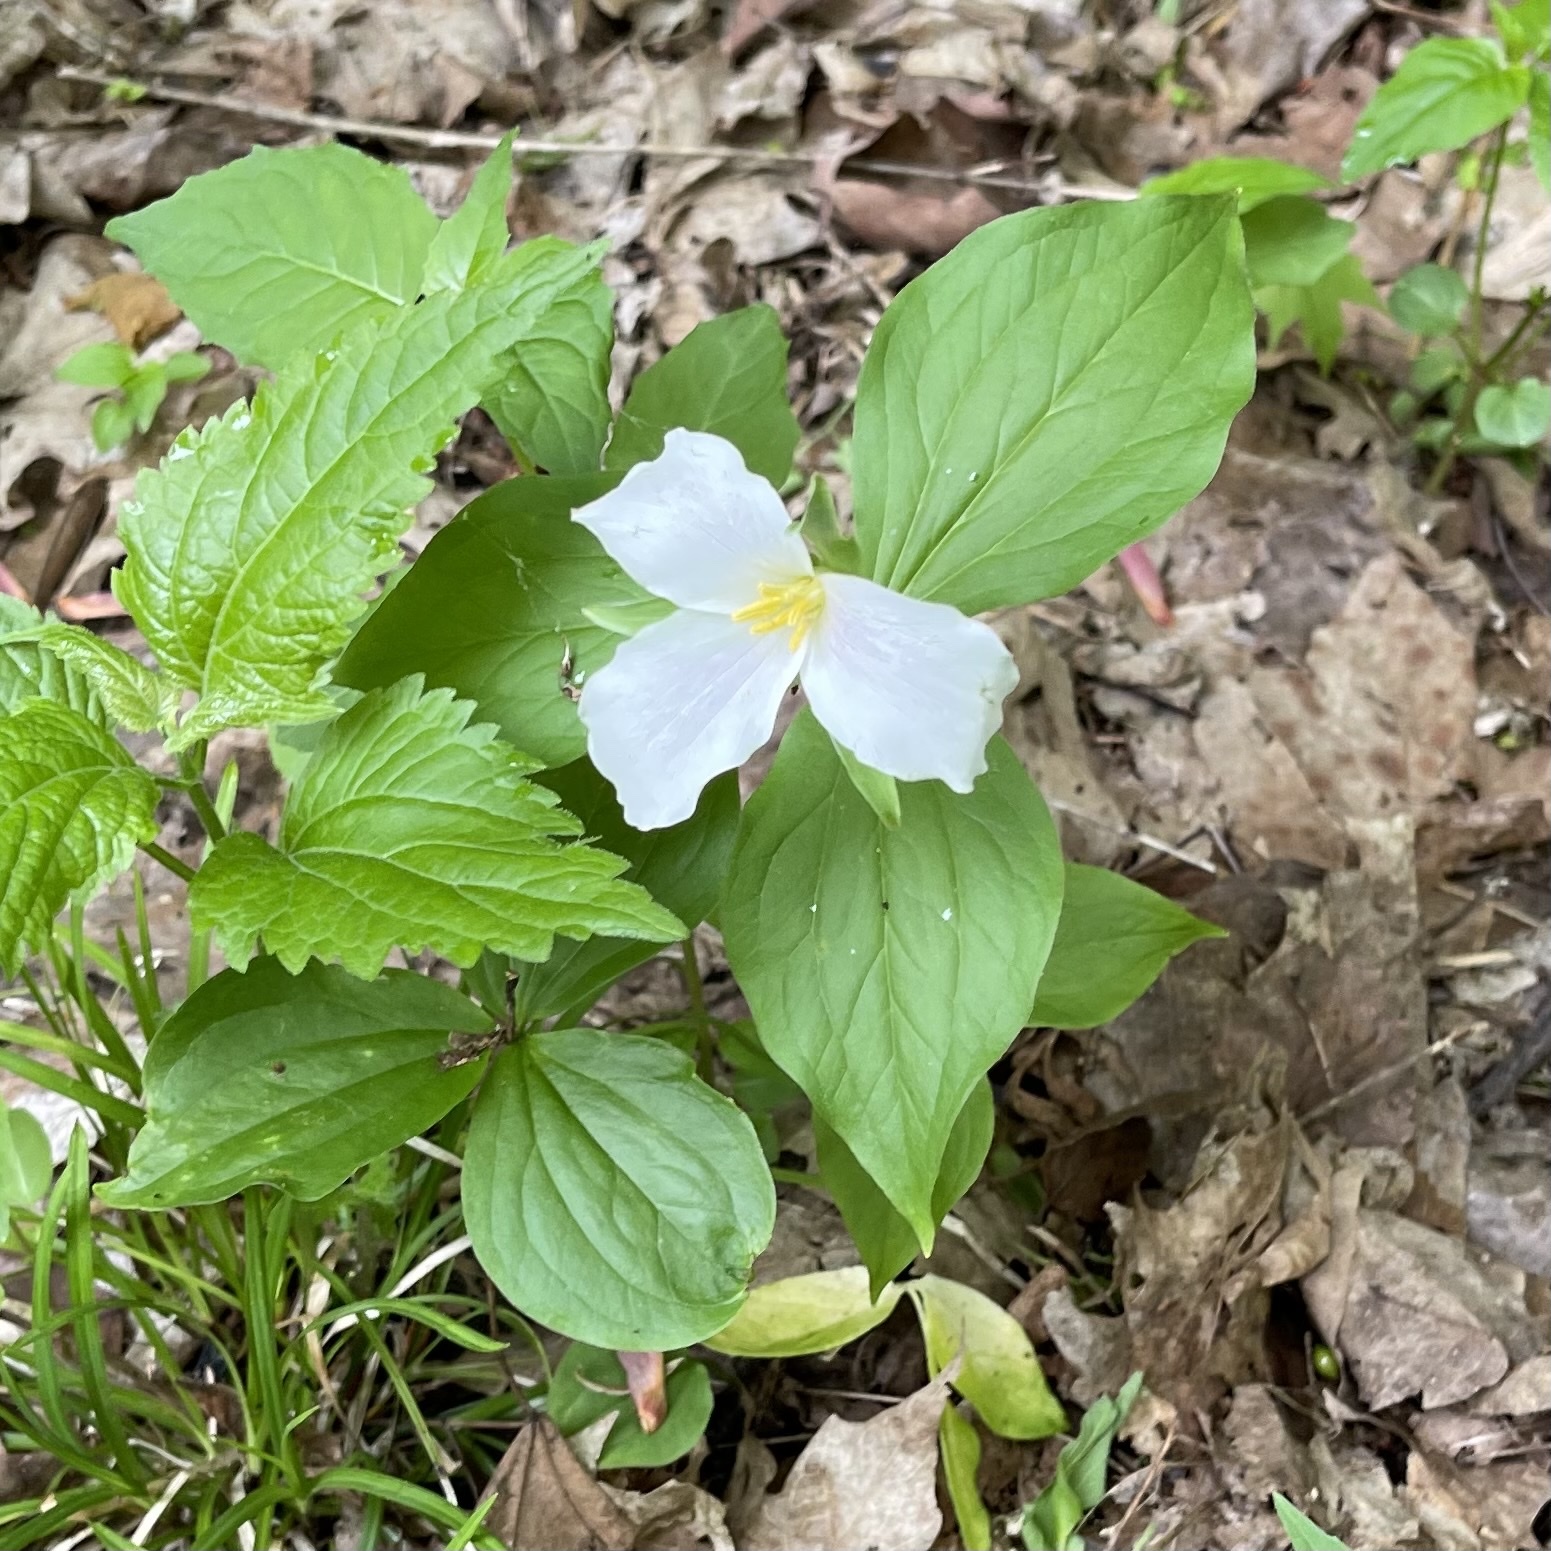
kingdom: Plantae
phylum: Tracheophyta
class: Liliopsida
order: Liliales
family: Melanthiaceae
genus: Trillium
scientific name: Trillium grandiflorum
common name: Great white trillium
